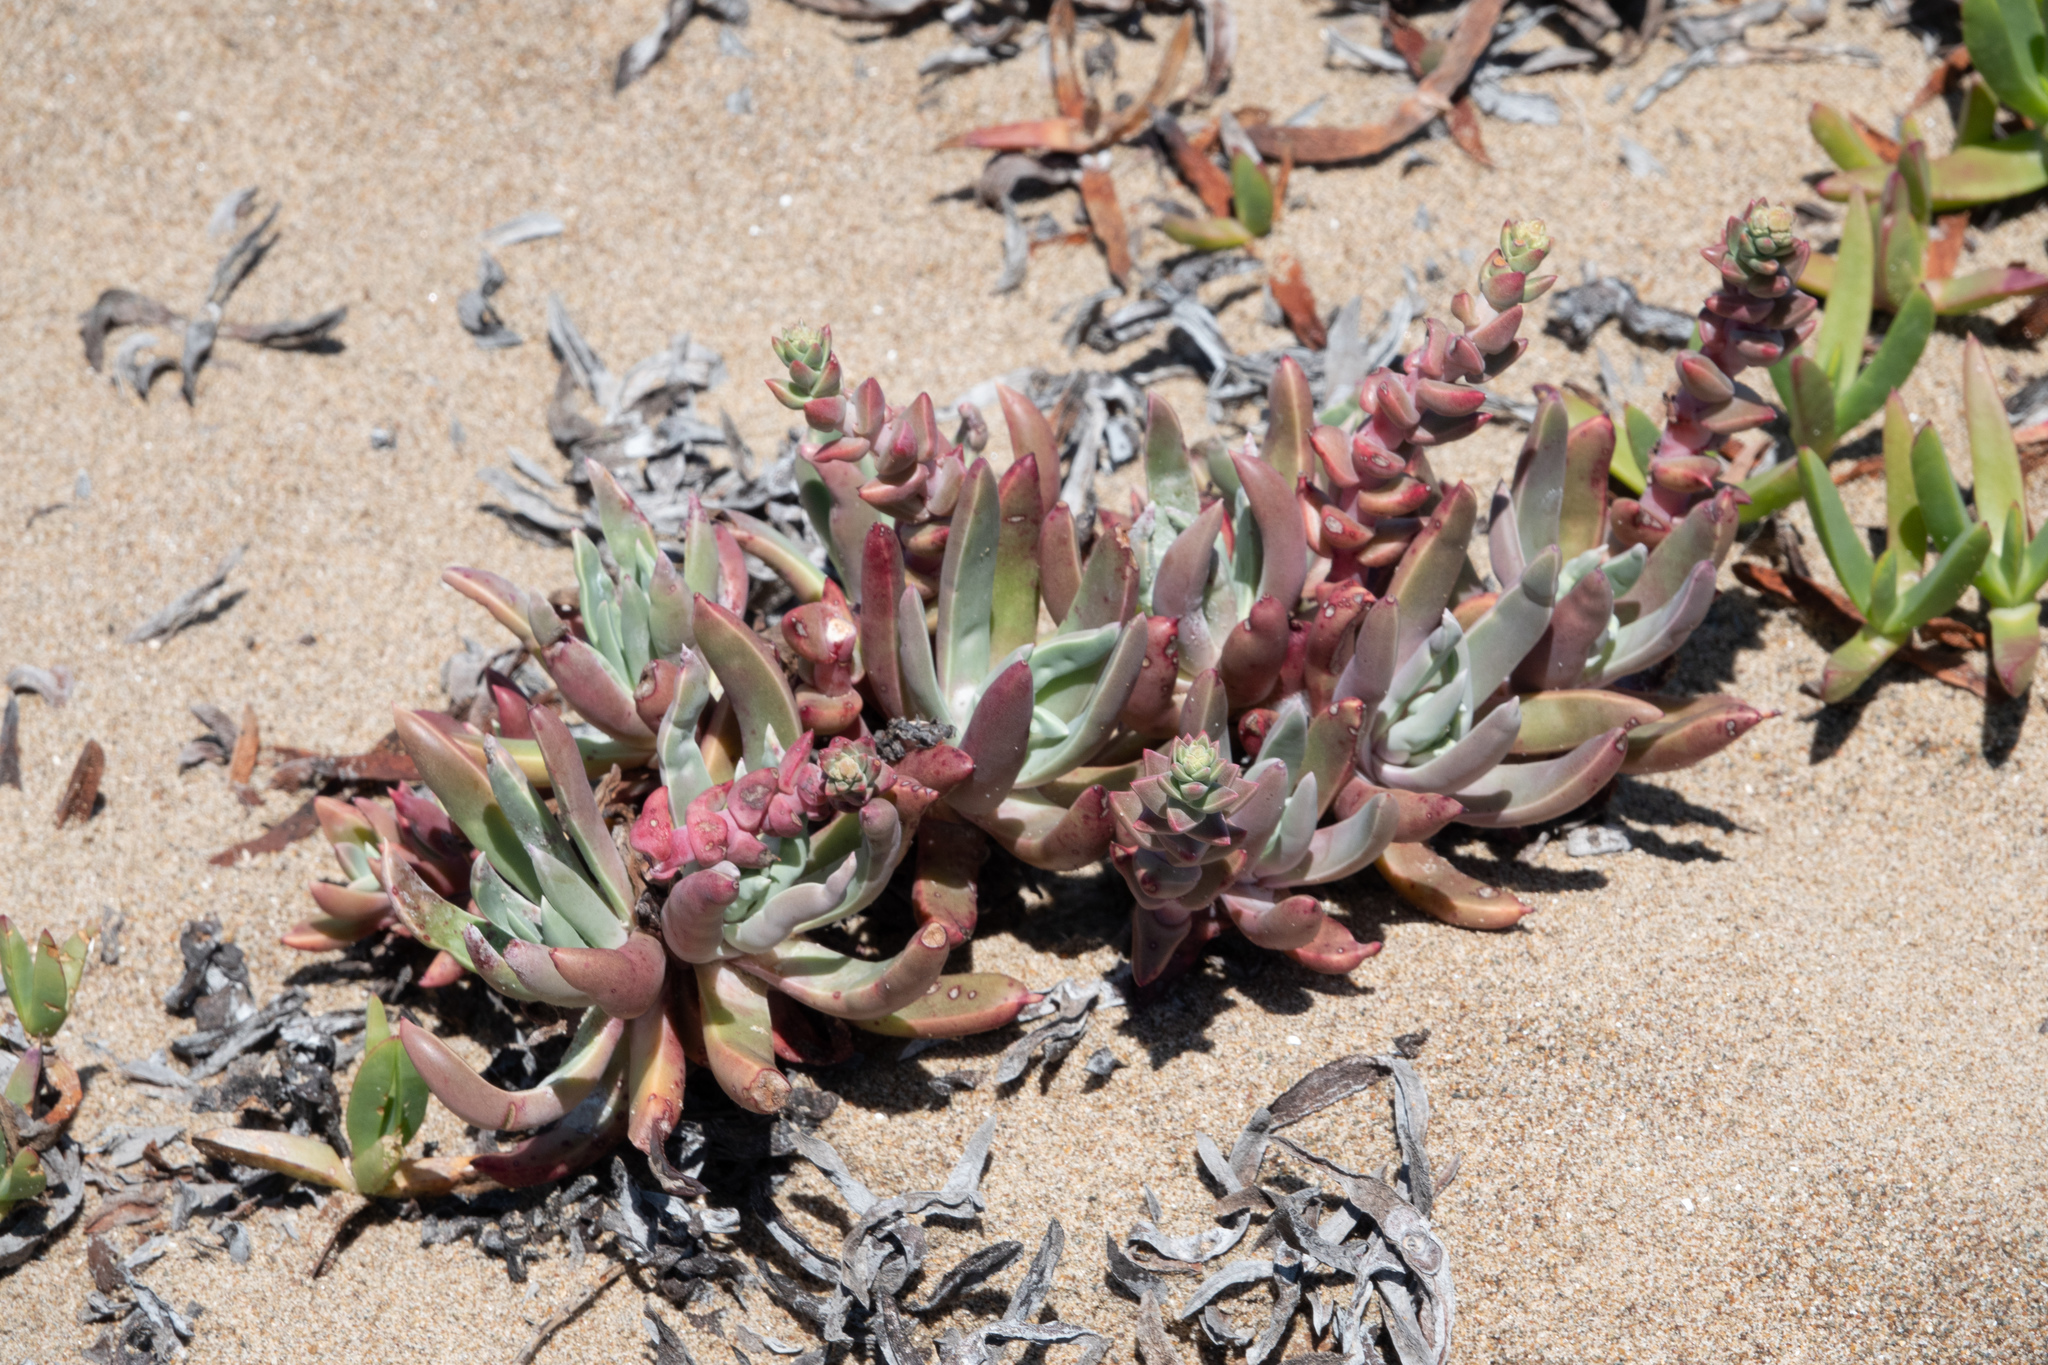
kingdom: Plantae
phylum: Tracheophyta
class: Magnoliopsida
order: Saxifragales
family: Crassulaceae
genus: Dudleya
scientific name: Dudleya caespitosa
